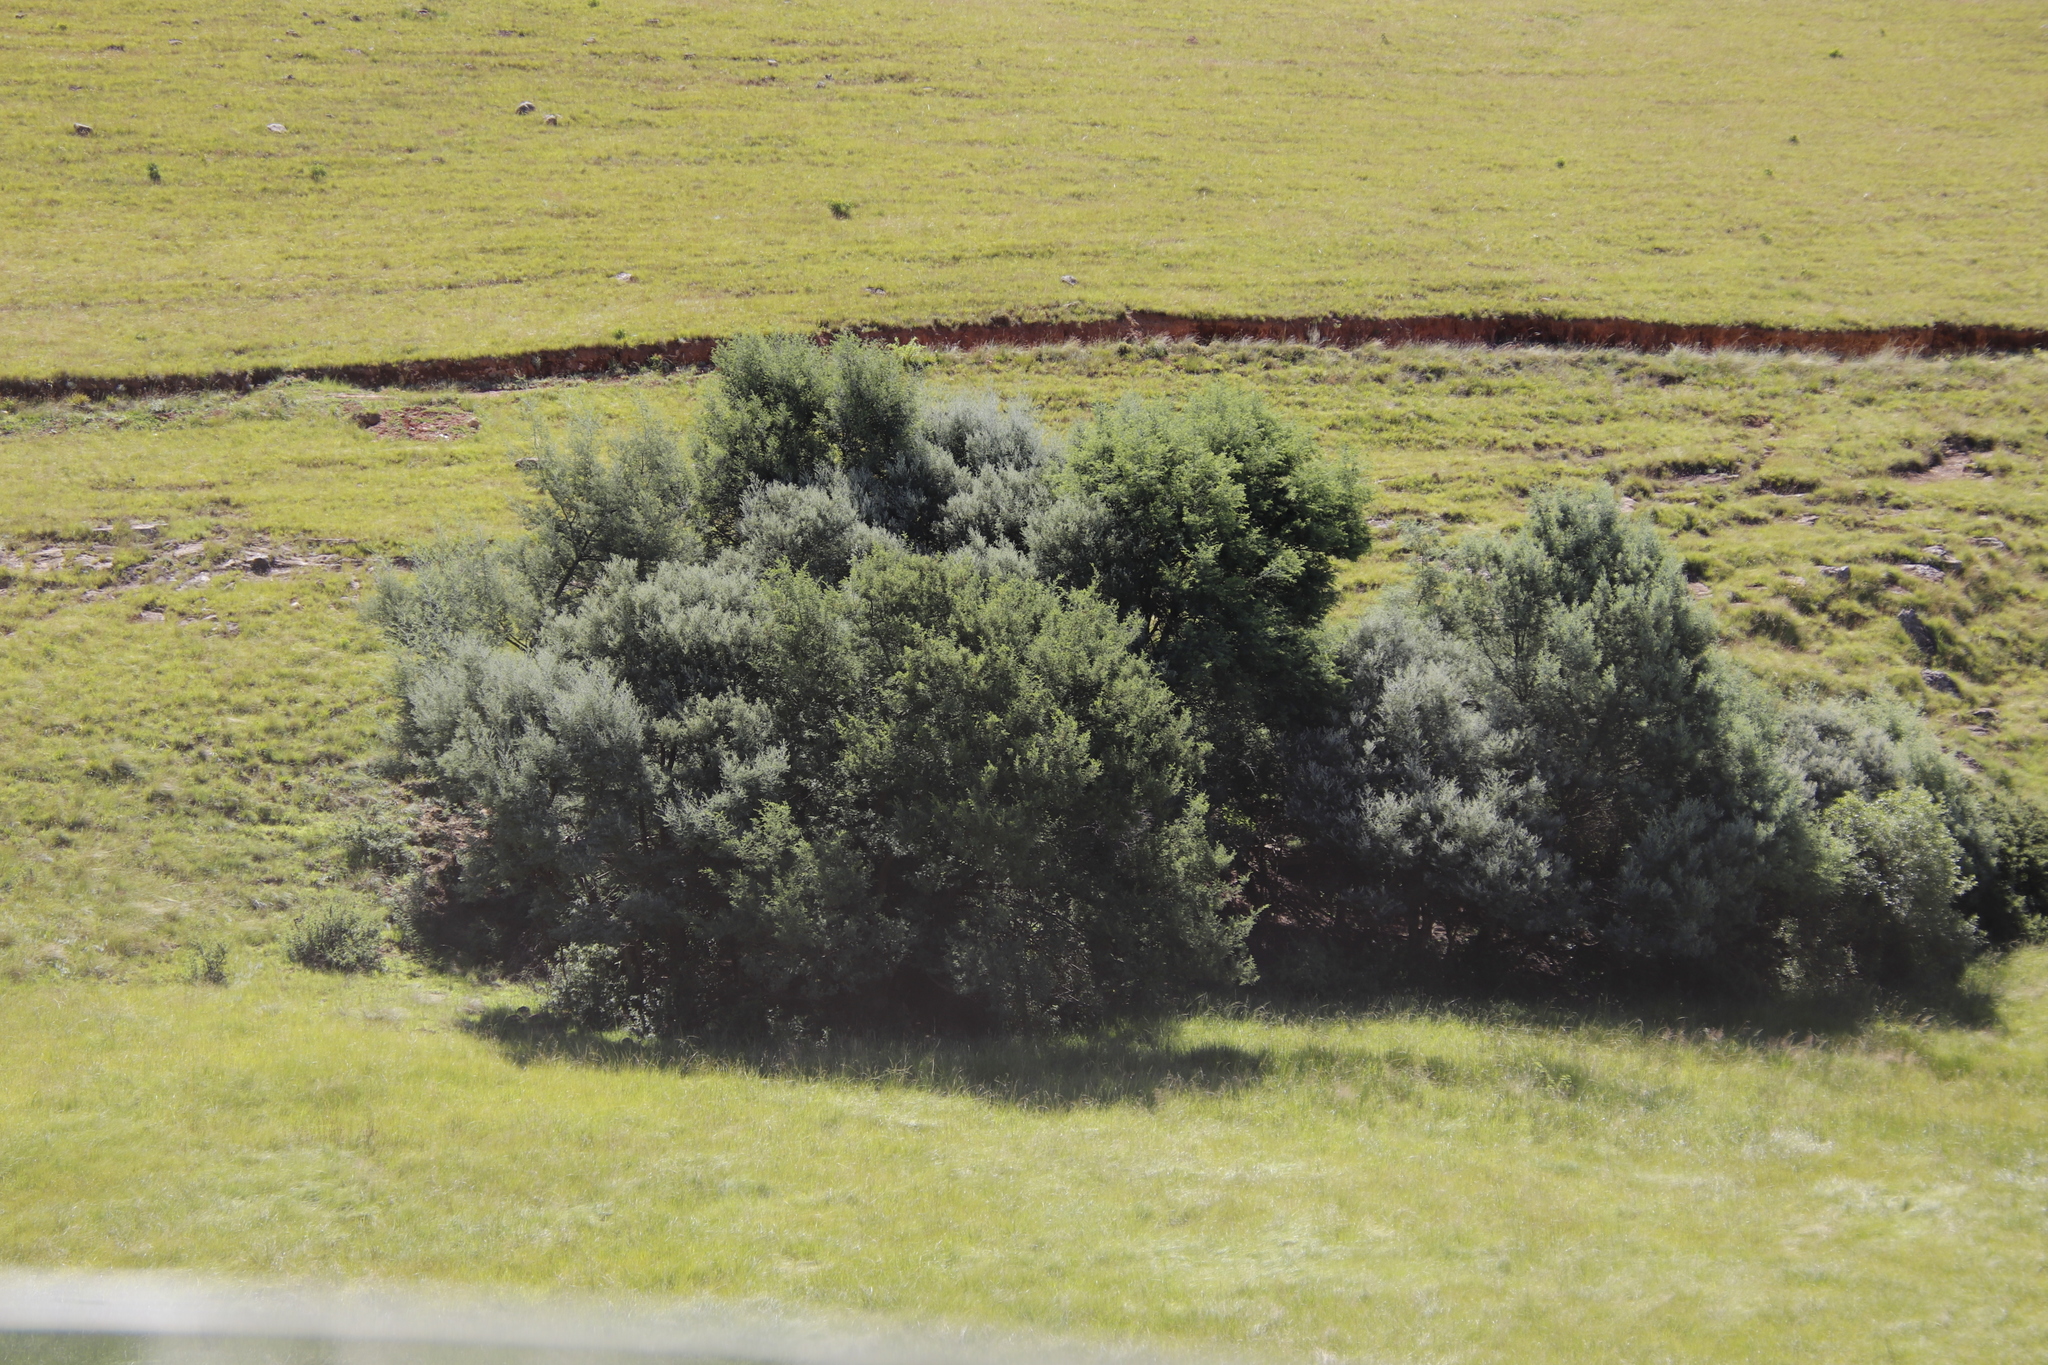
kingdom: Plantae
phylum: Tracheophyta
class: Magnoliopsida
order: Fabales
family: Fabaceae
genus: Acacia
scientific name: Acacia mearnsii
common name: Black wattle
